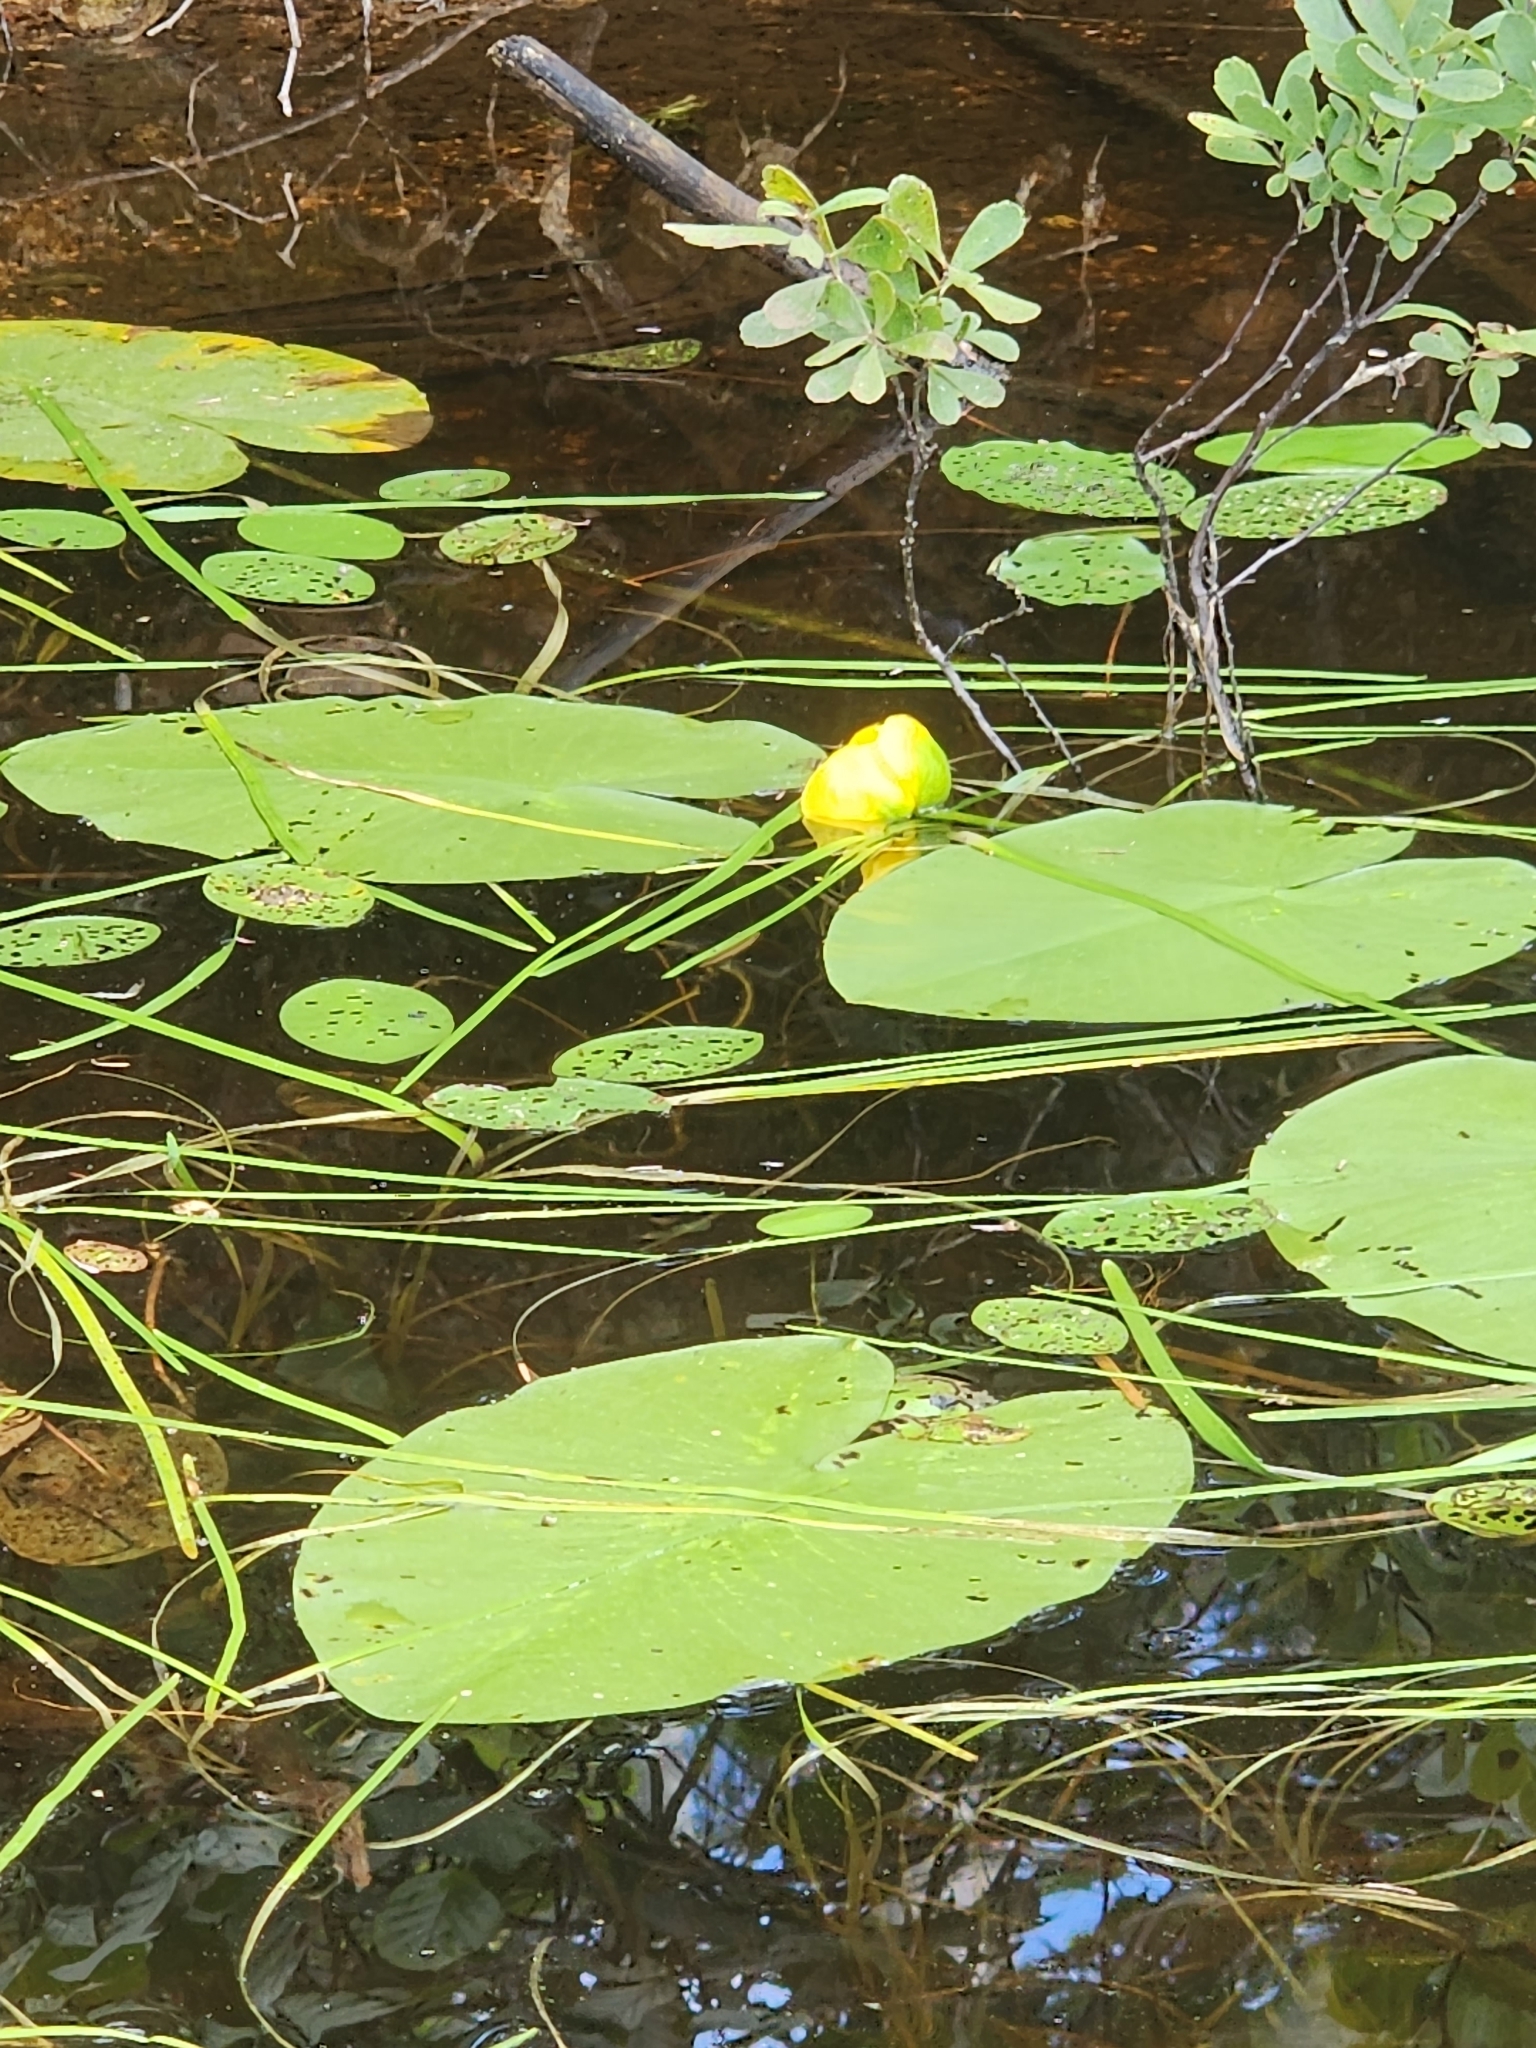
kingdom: Plantae
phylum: Tracheophyta
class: Magnoliopsida
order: Nymphaeales
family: Nymphaeaceae
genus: Nuphar
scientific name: Nuphar variegata
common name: Beaver-root
